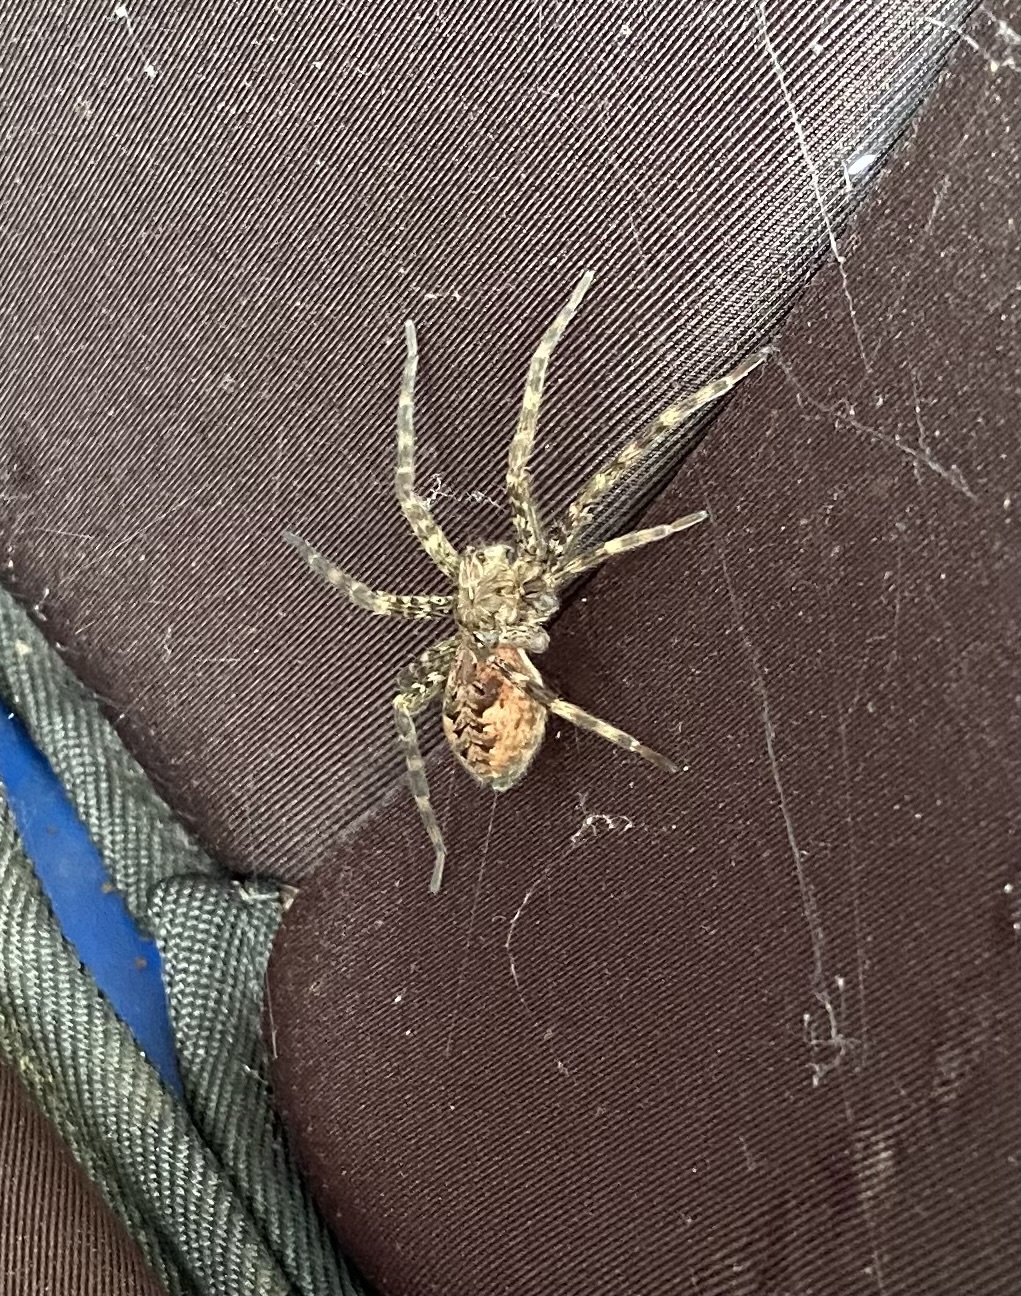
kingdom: Animalia
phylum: Arthropoda
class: Arachnida
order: Araneae
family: Pisauridae
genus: Dolomedes
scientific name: Dolomedes tenebrosus
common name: Dark fishing spider
